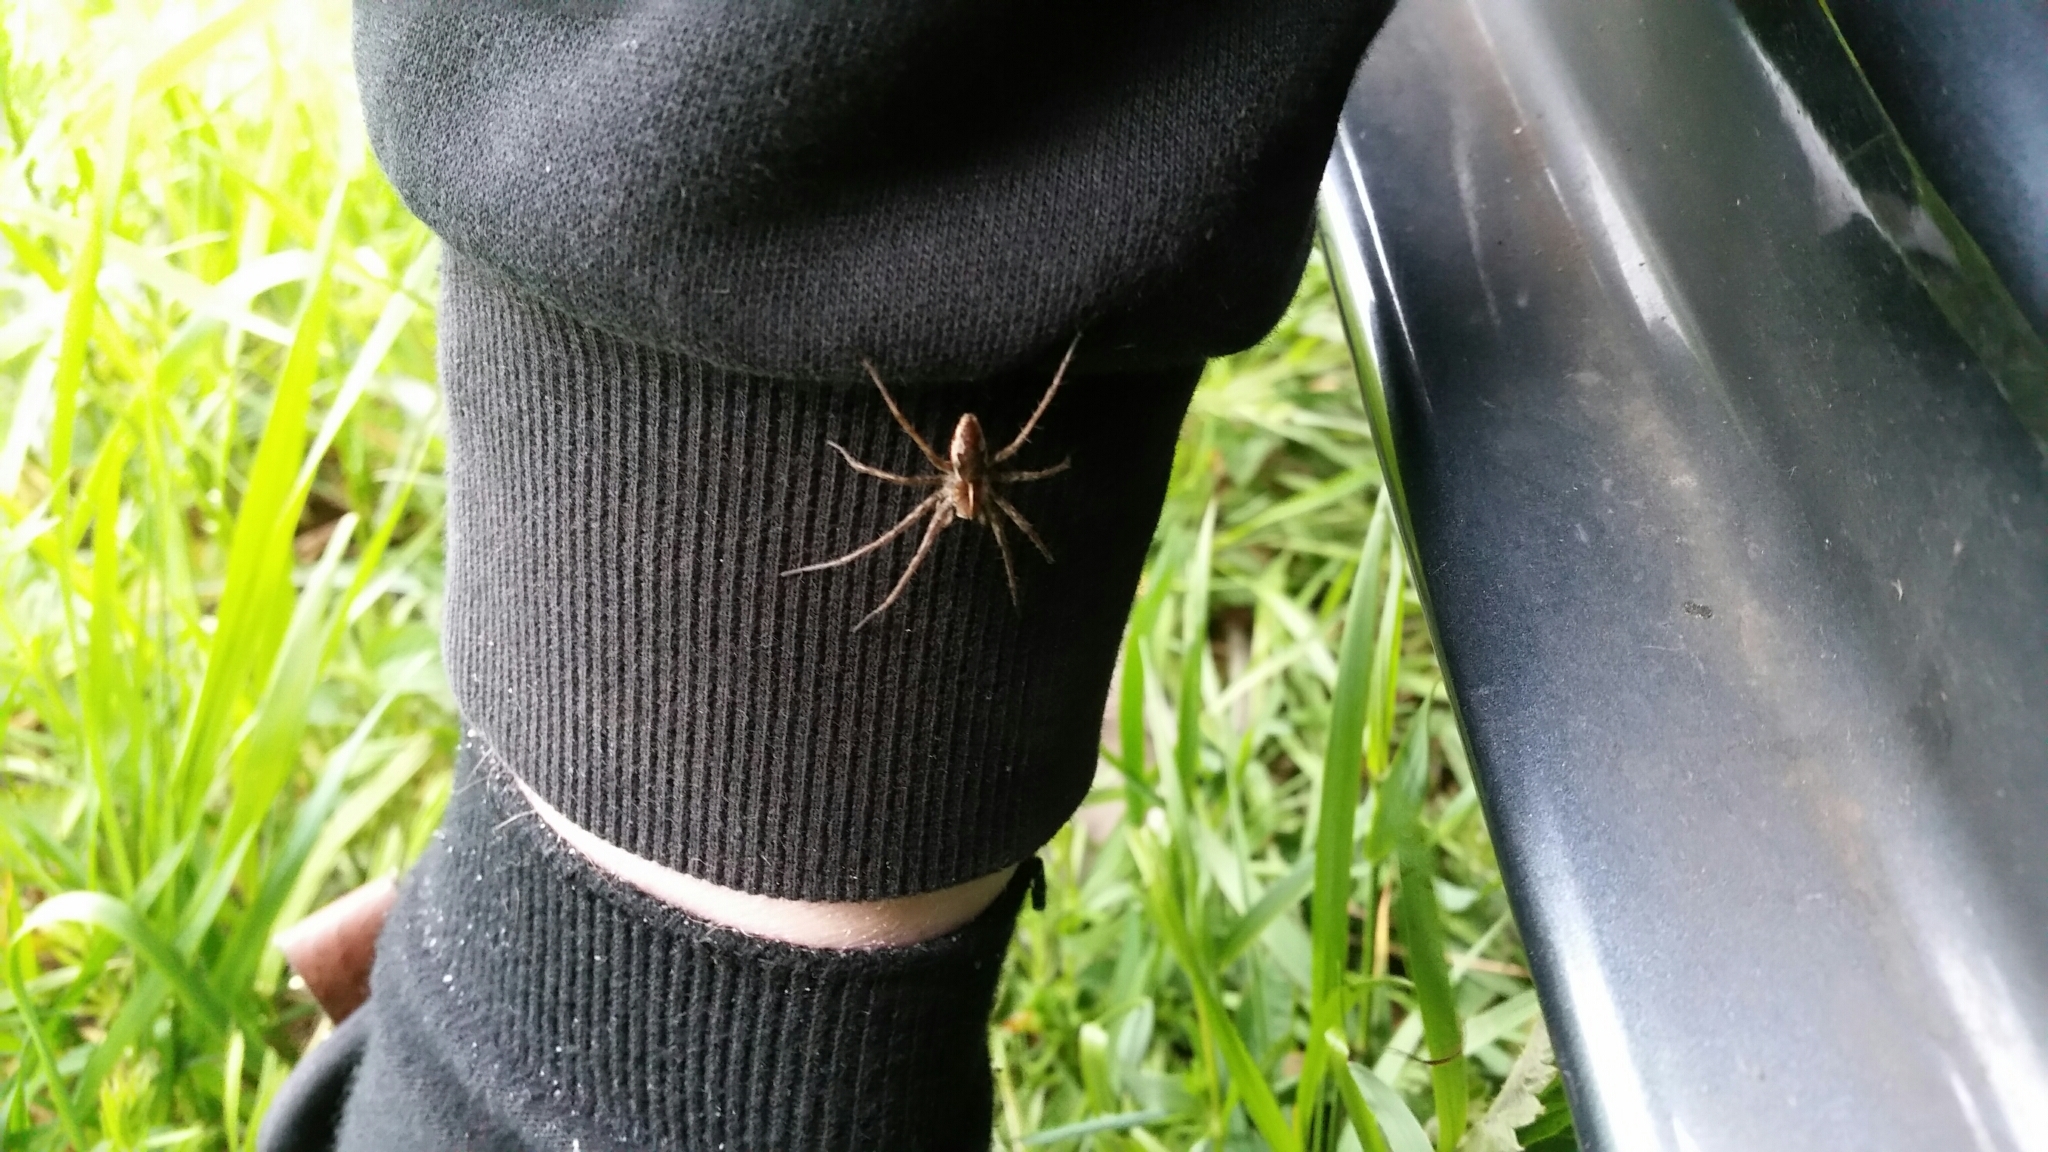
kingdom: Animalia
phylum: Arthropoda
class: Arachnida
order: Araneae
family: Pisauridae
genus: Pisaura
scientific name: Pisaura mirabilis
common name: Tent spider
